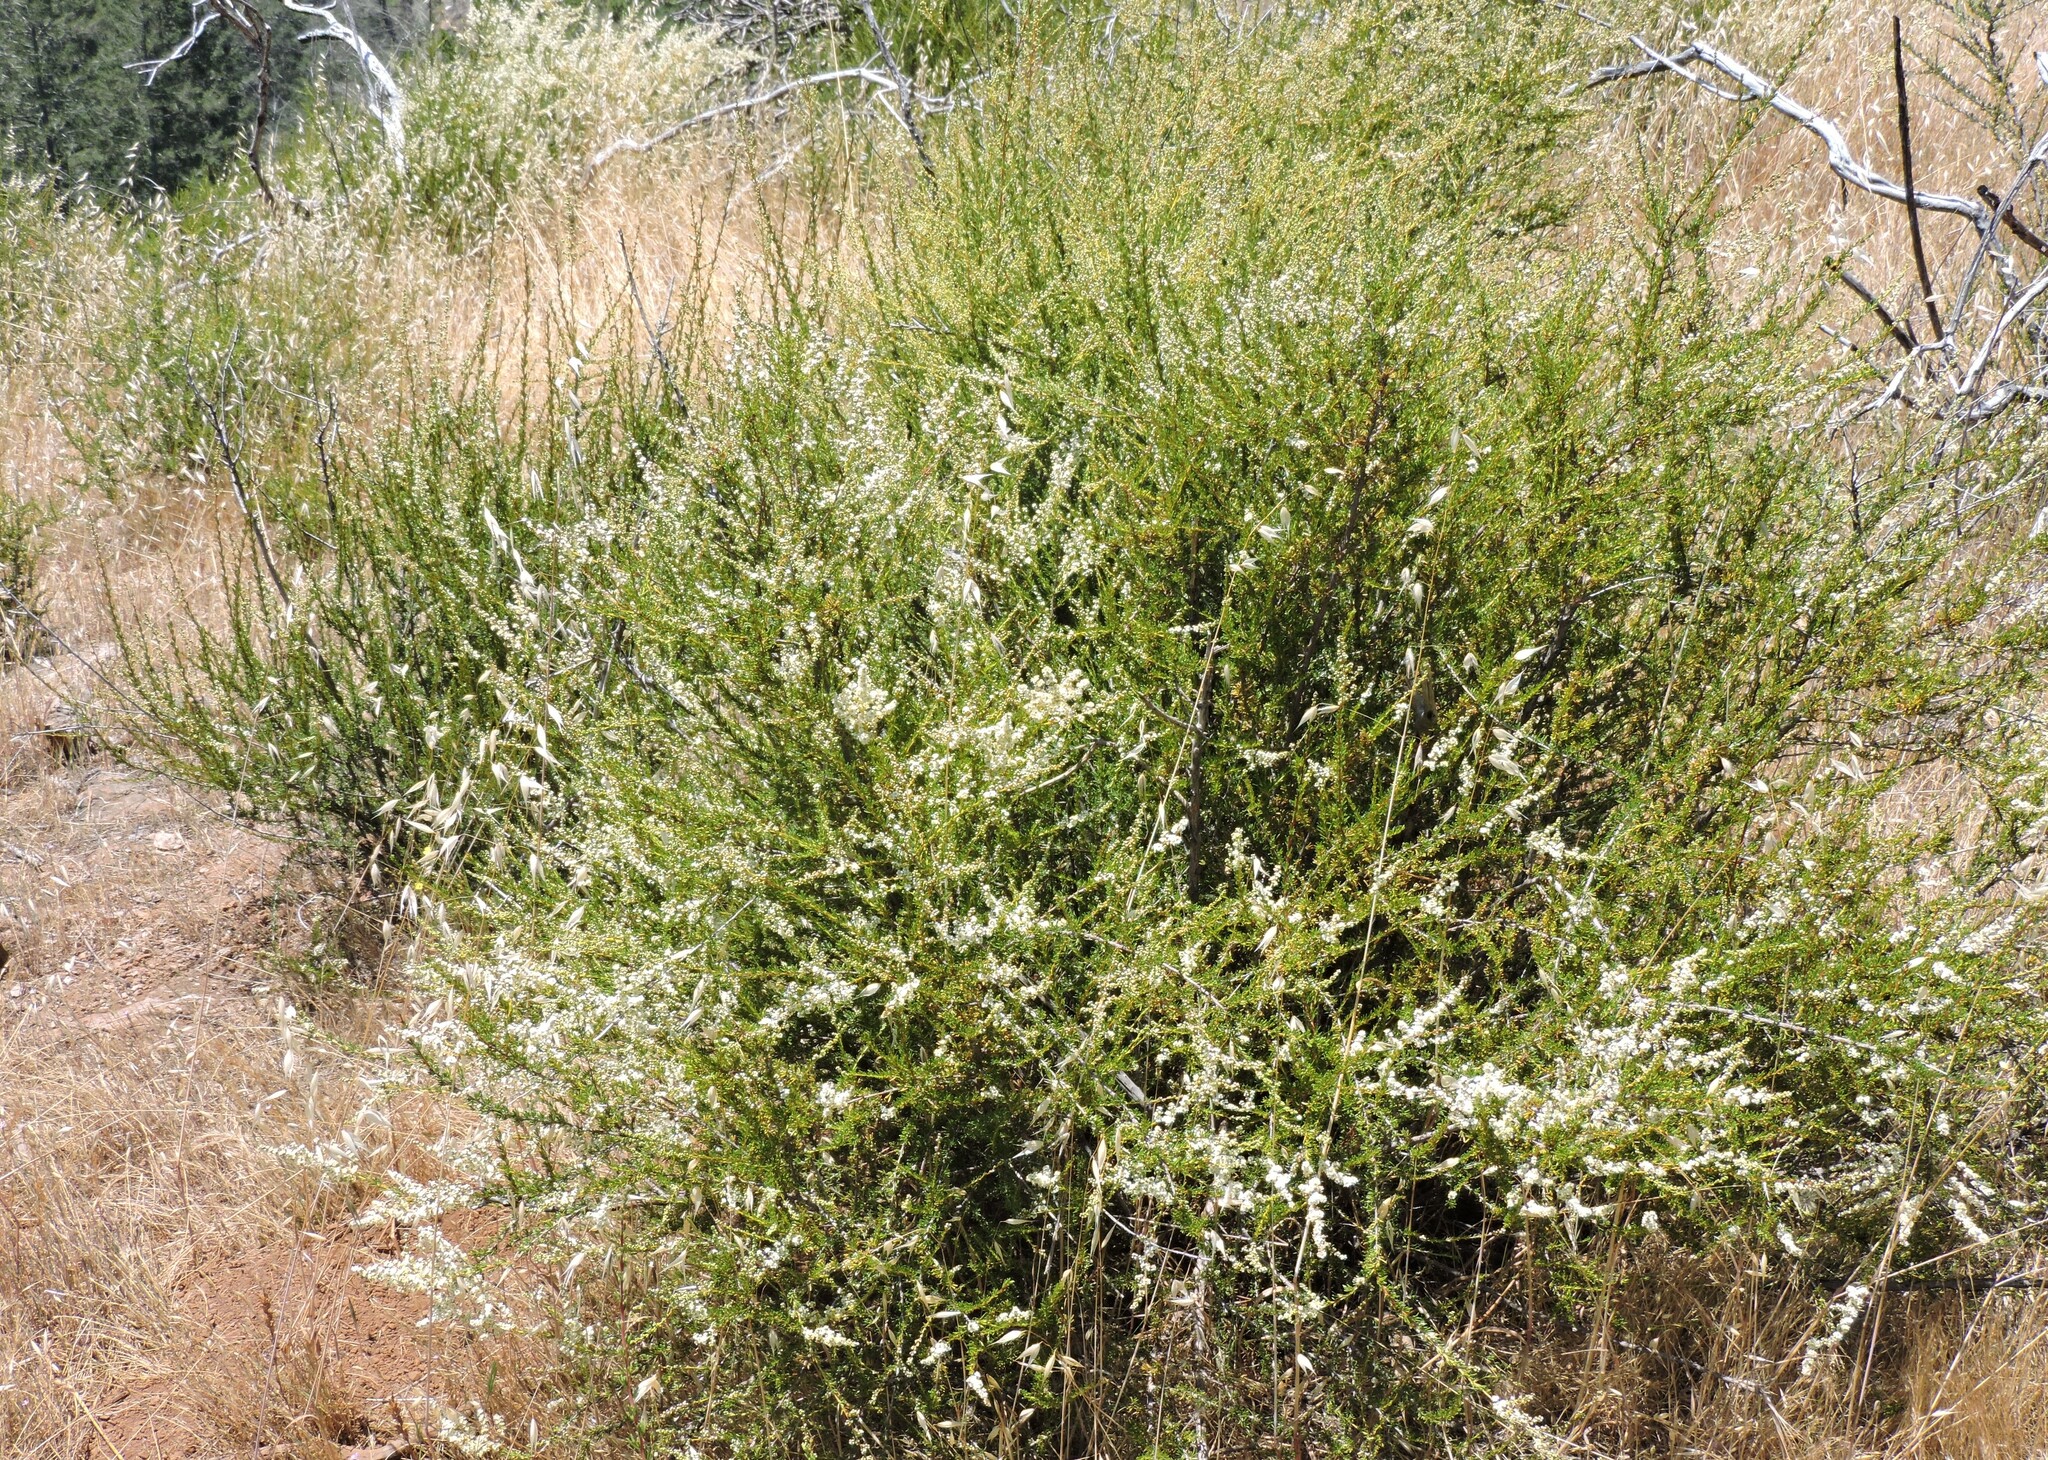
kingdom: Plantae
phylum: Tracheophyta
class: Magnoliopsida
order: Rosales
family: Rosaceae
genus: Adenostoma
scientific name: Adenostoma fasciculatum
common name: Chamise
